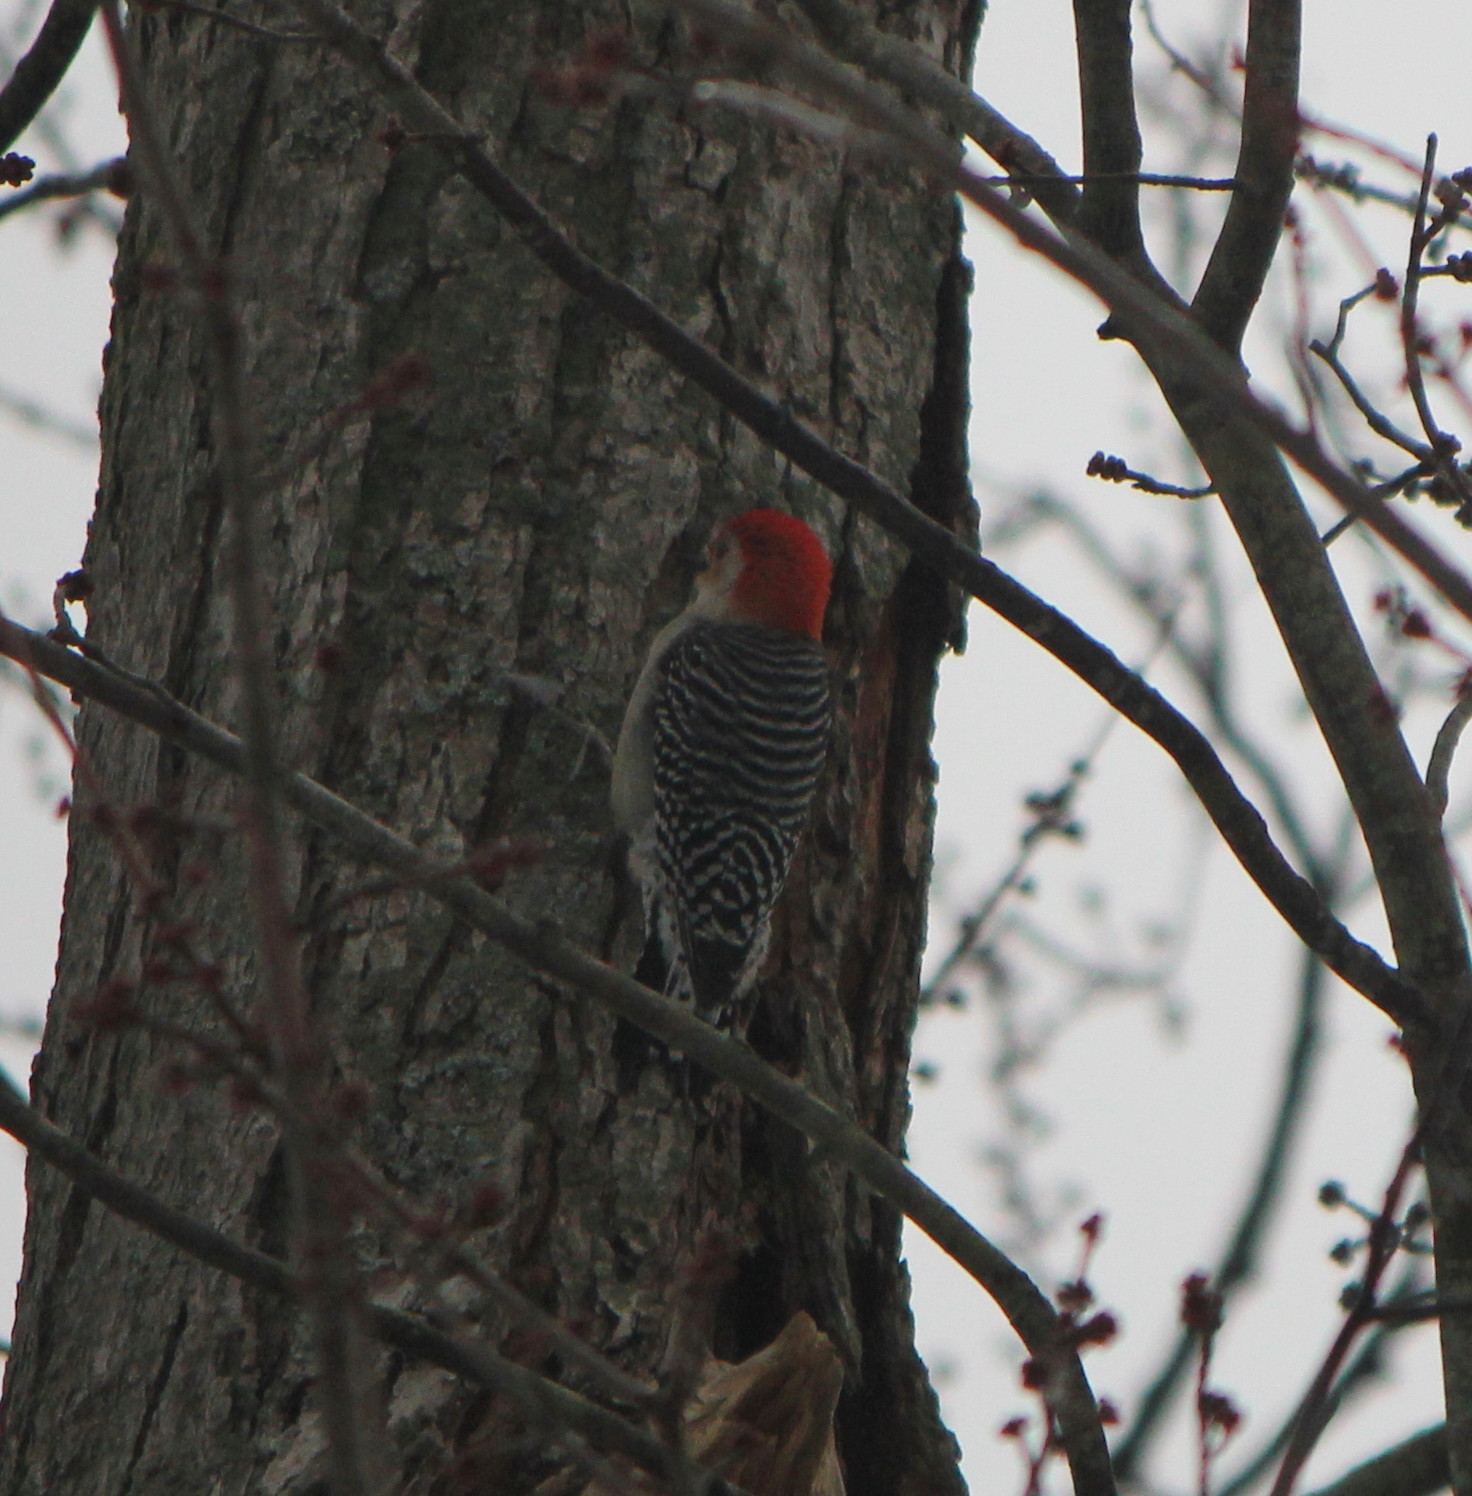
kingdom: Animalia
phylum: Chordata
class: Aves
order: Piciformes
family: Picidae
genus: Melanerpes
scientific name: Melanerpes carolinus
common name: Red-bellied woodpecker
